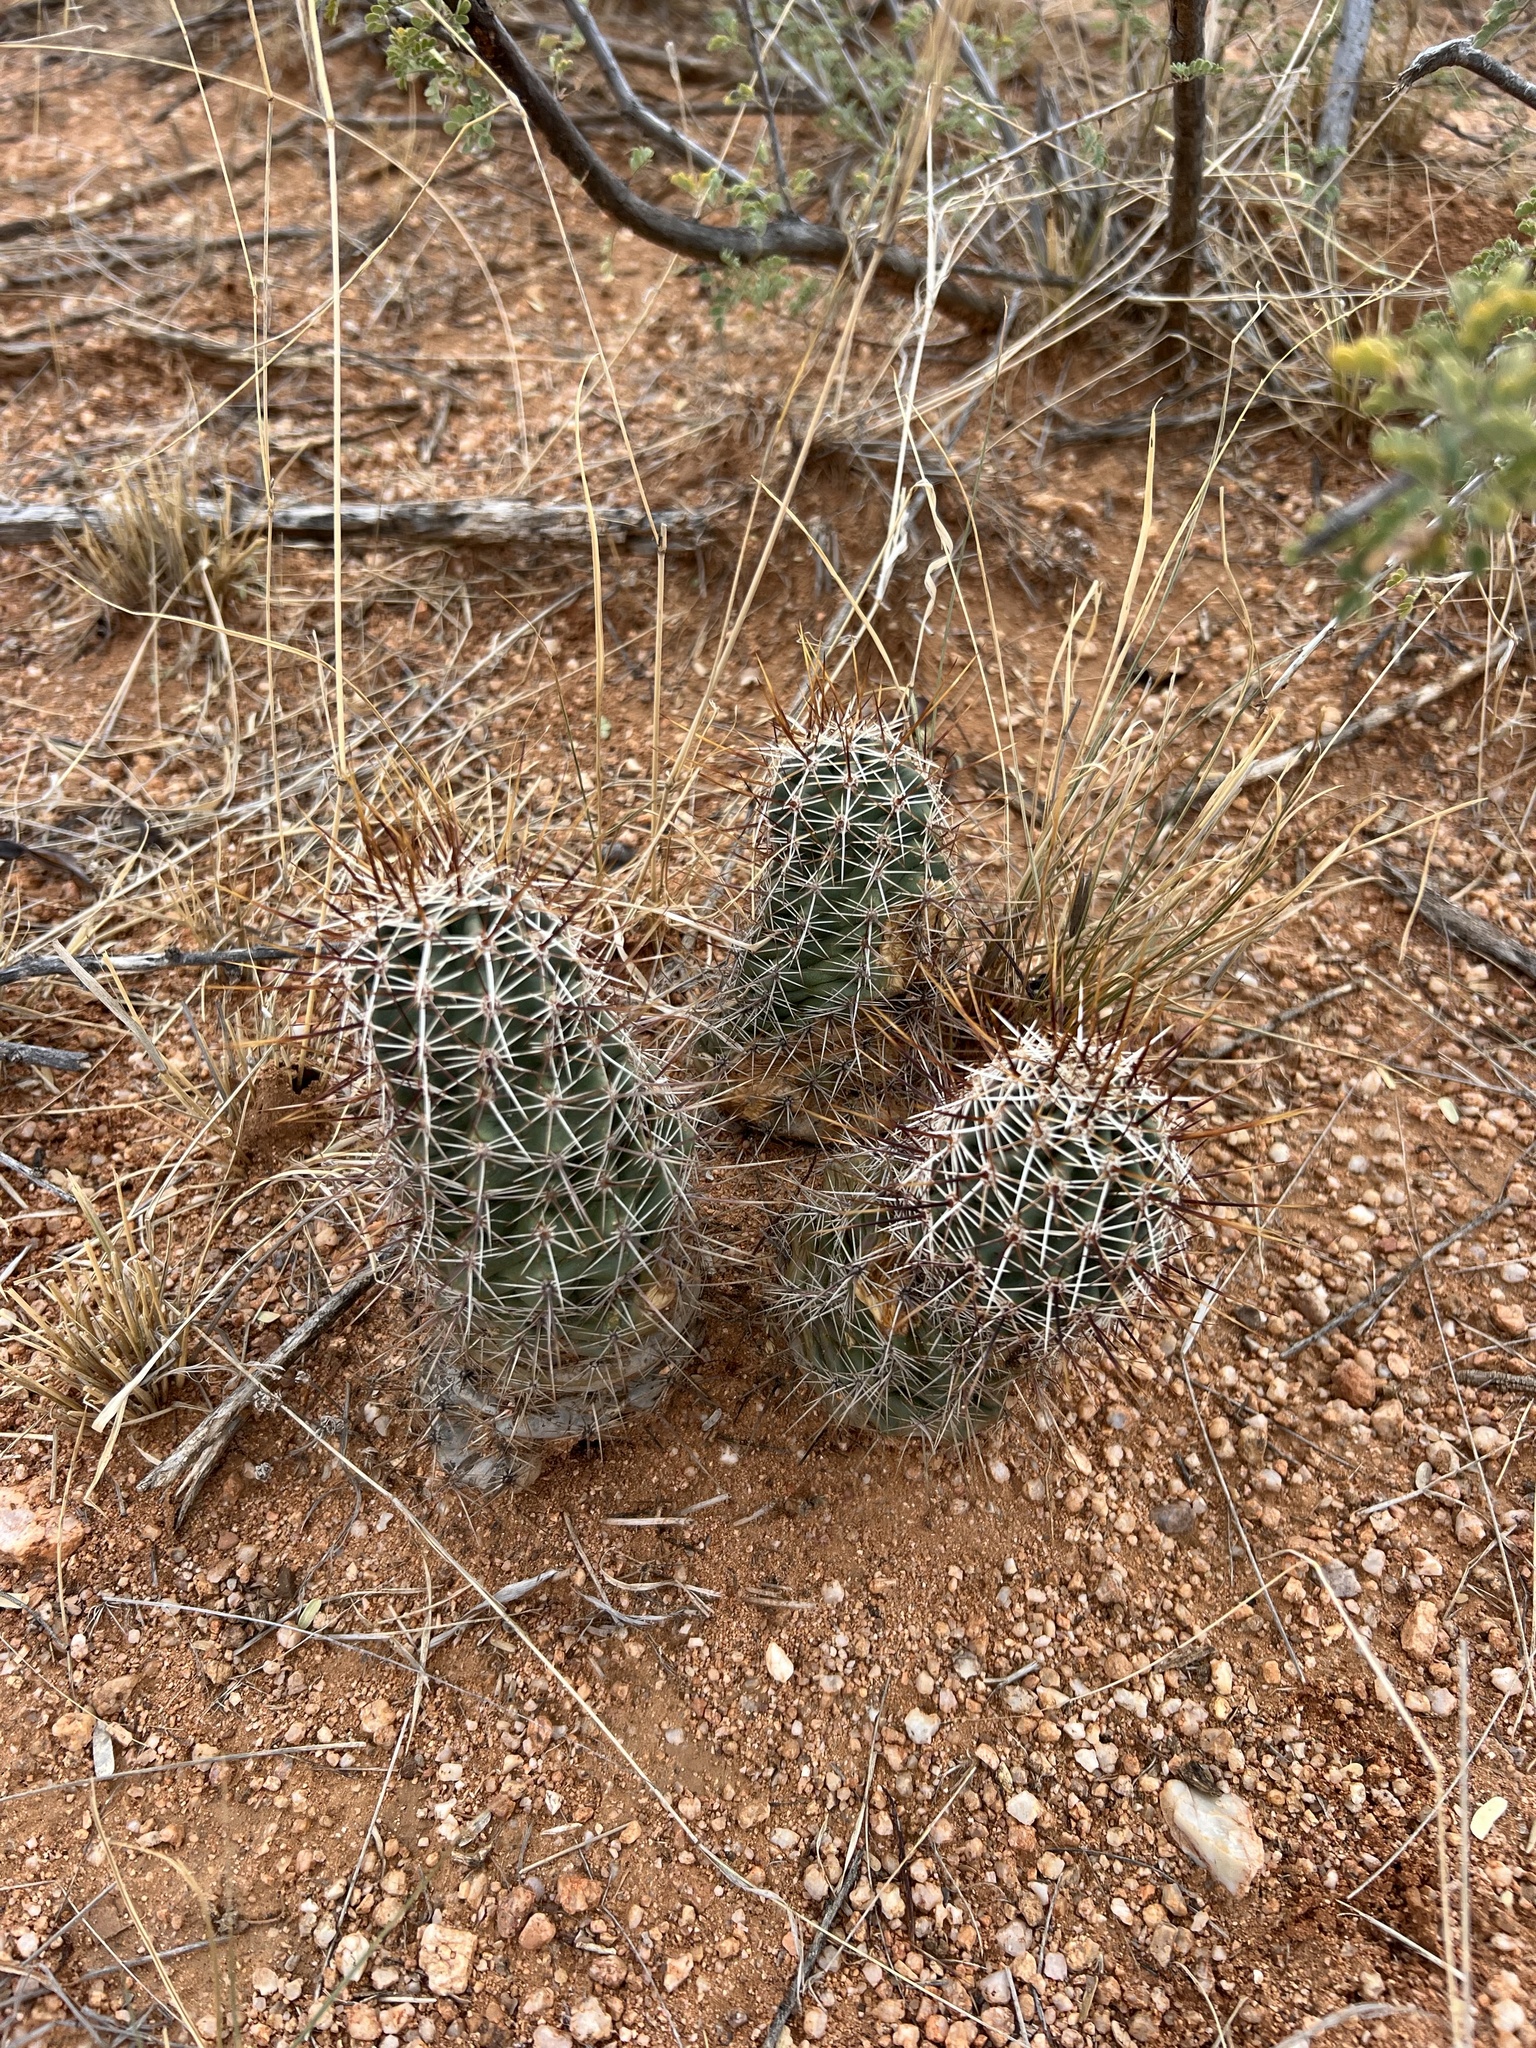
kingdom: Plantae
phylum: Tracheophyta
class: Magnoliopsida
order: Caryophyllales
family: Cactaceae
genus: Echinocereus
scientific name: Echinocereus fasciculatus
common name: Bundle hedgehog
